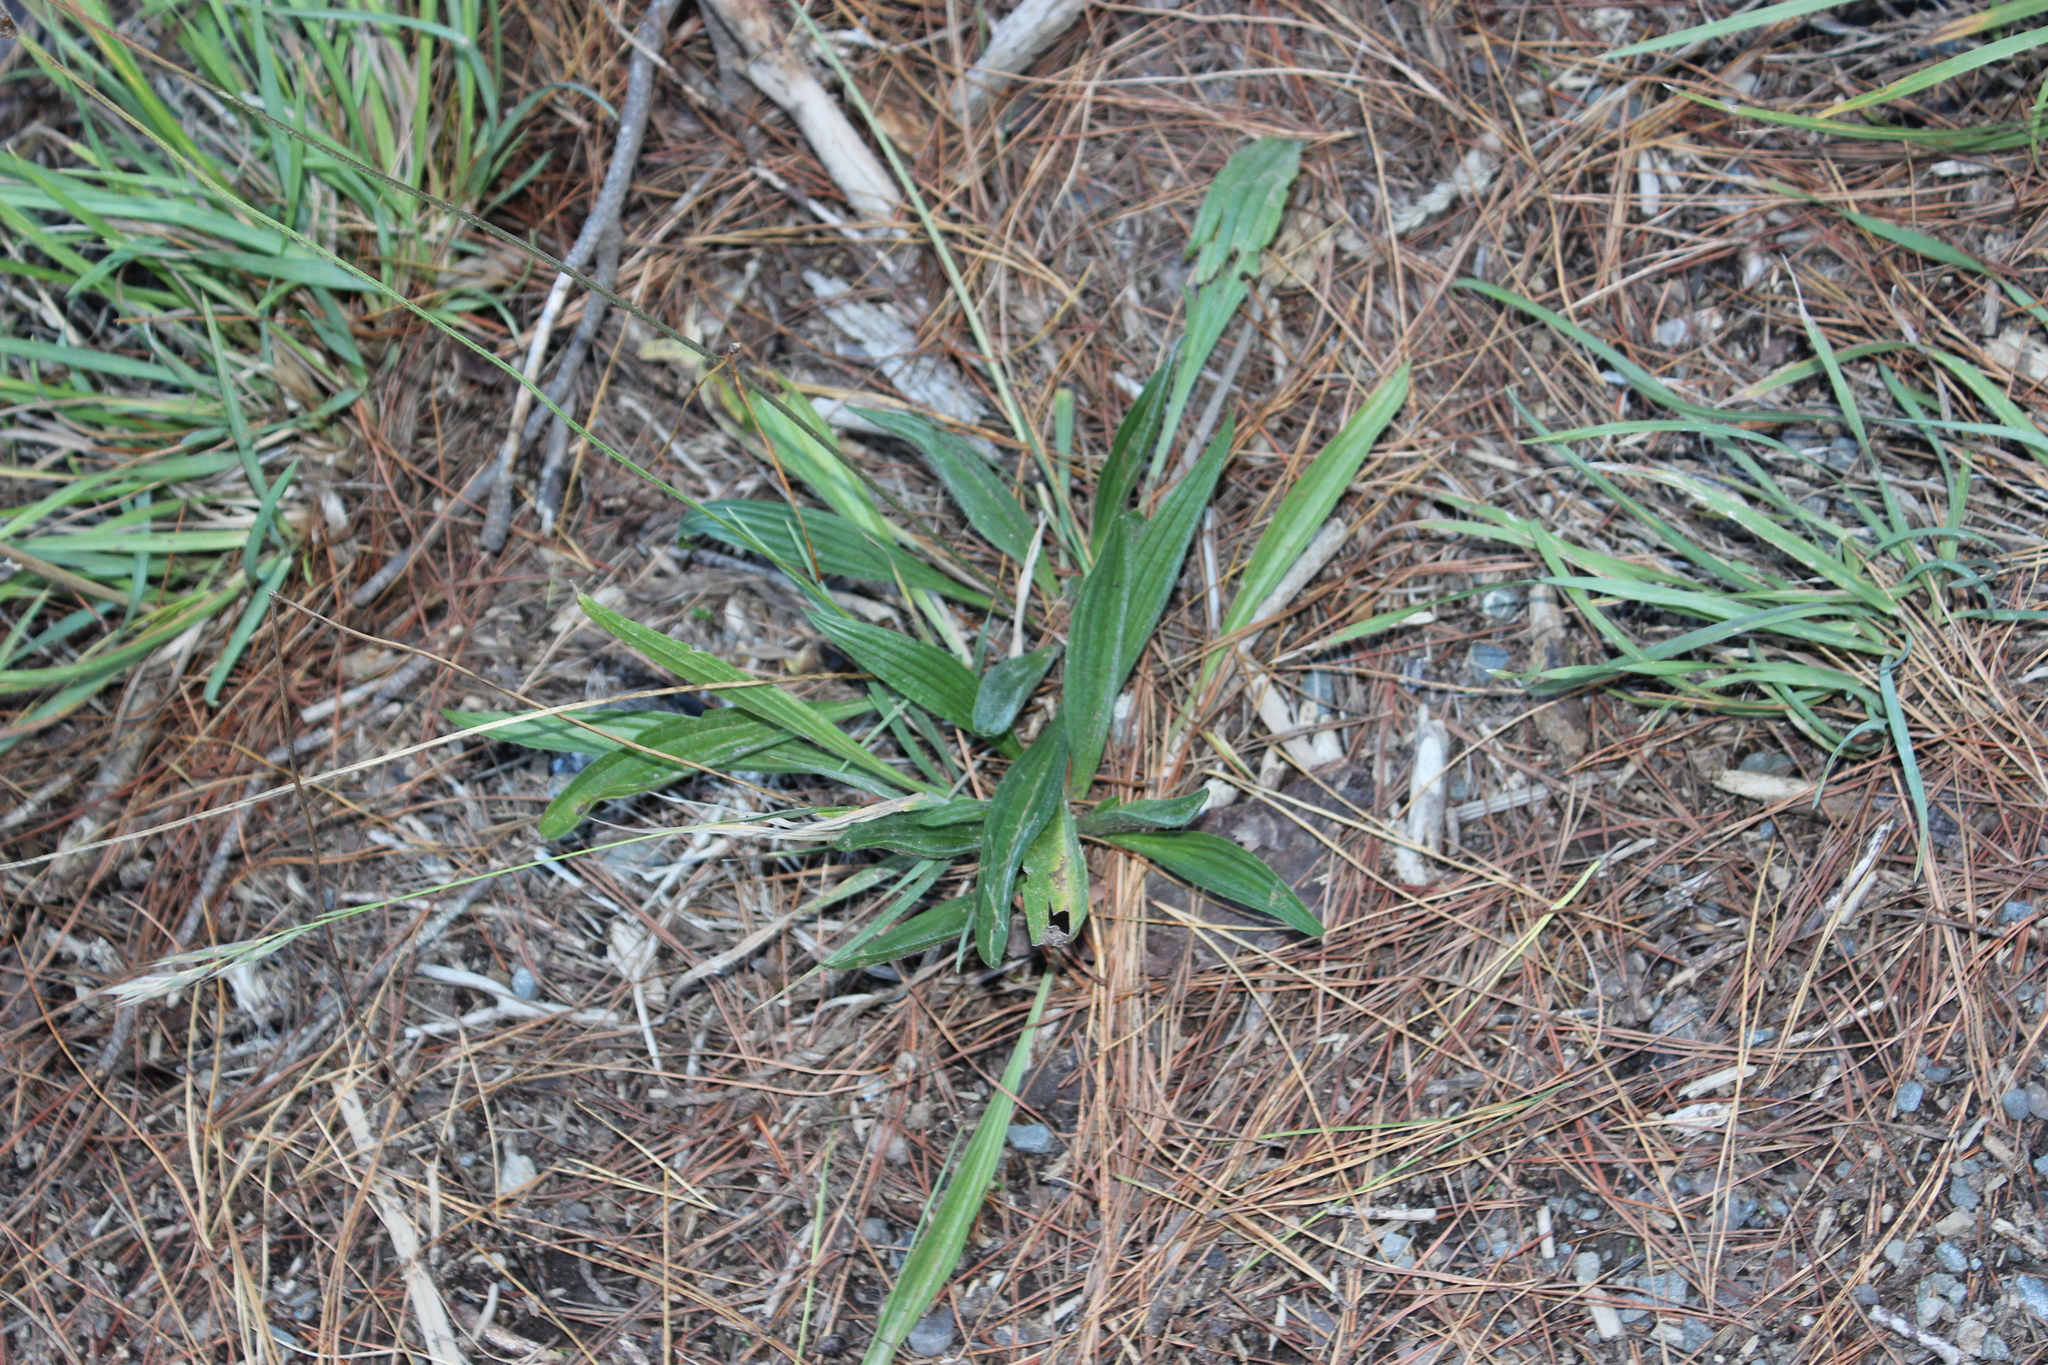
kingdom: Plantae
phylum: Tracheophyta
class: Magnoliopsida
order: Lamiales
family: Plantaginaceae
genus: Plantago
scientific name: Plantago lanceolata
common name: Ribwort plantain
